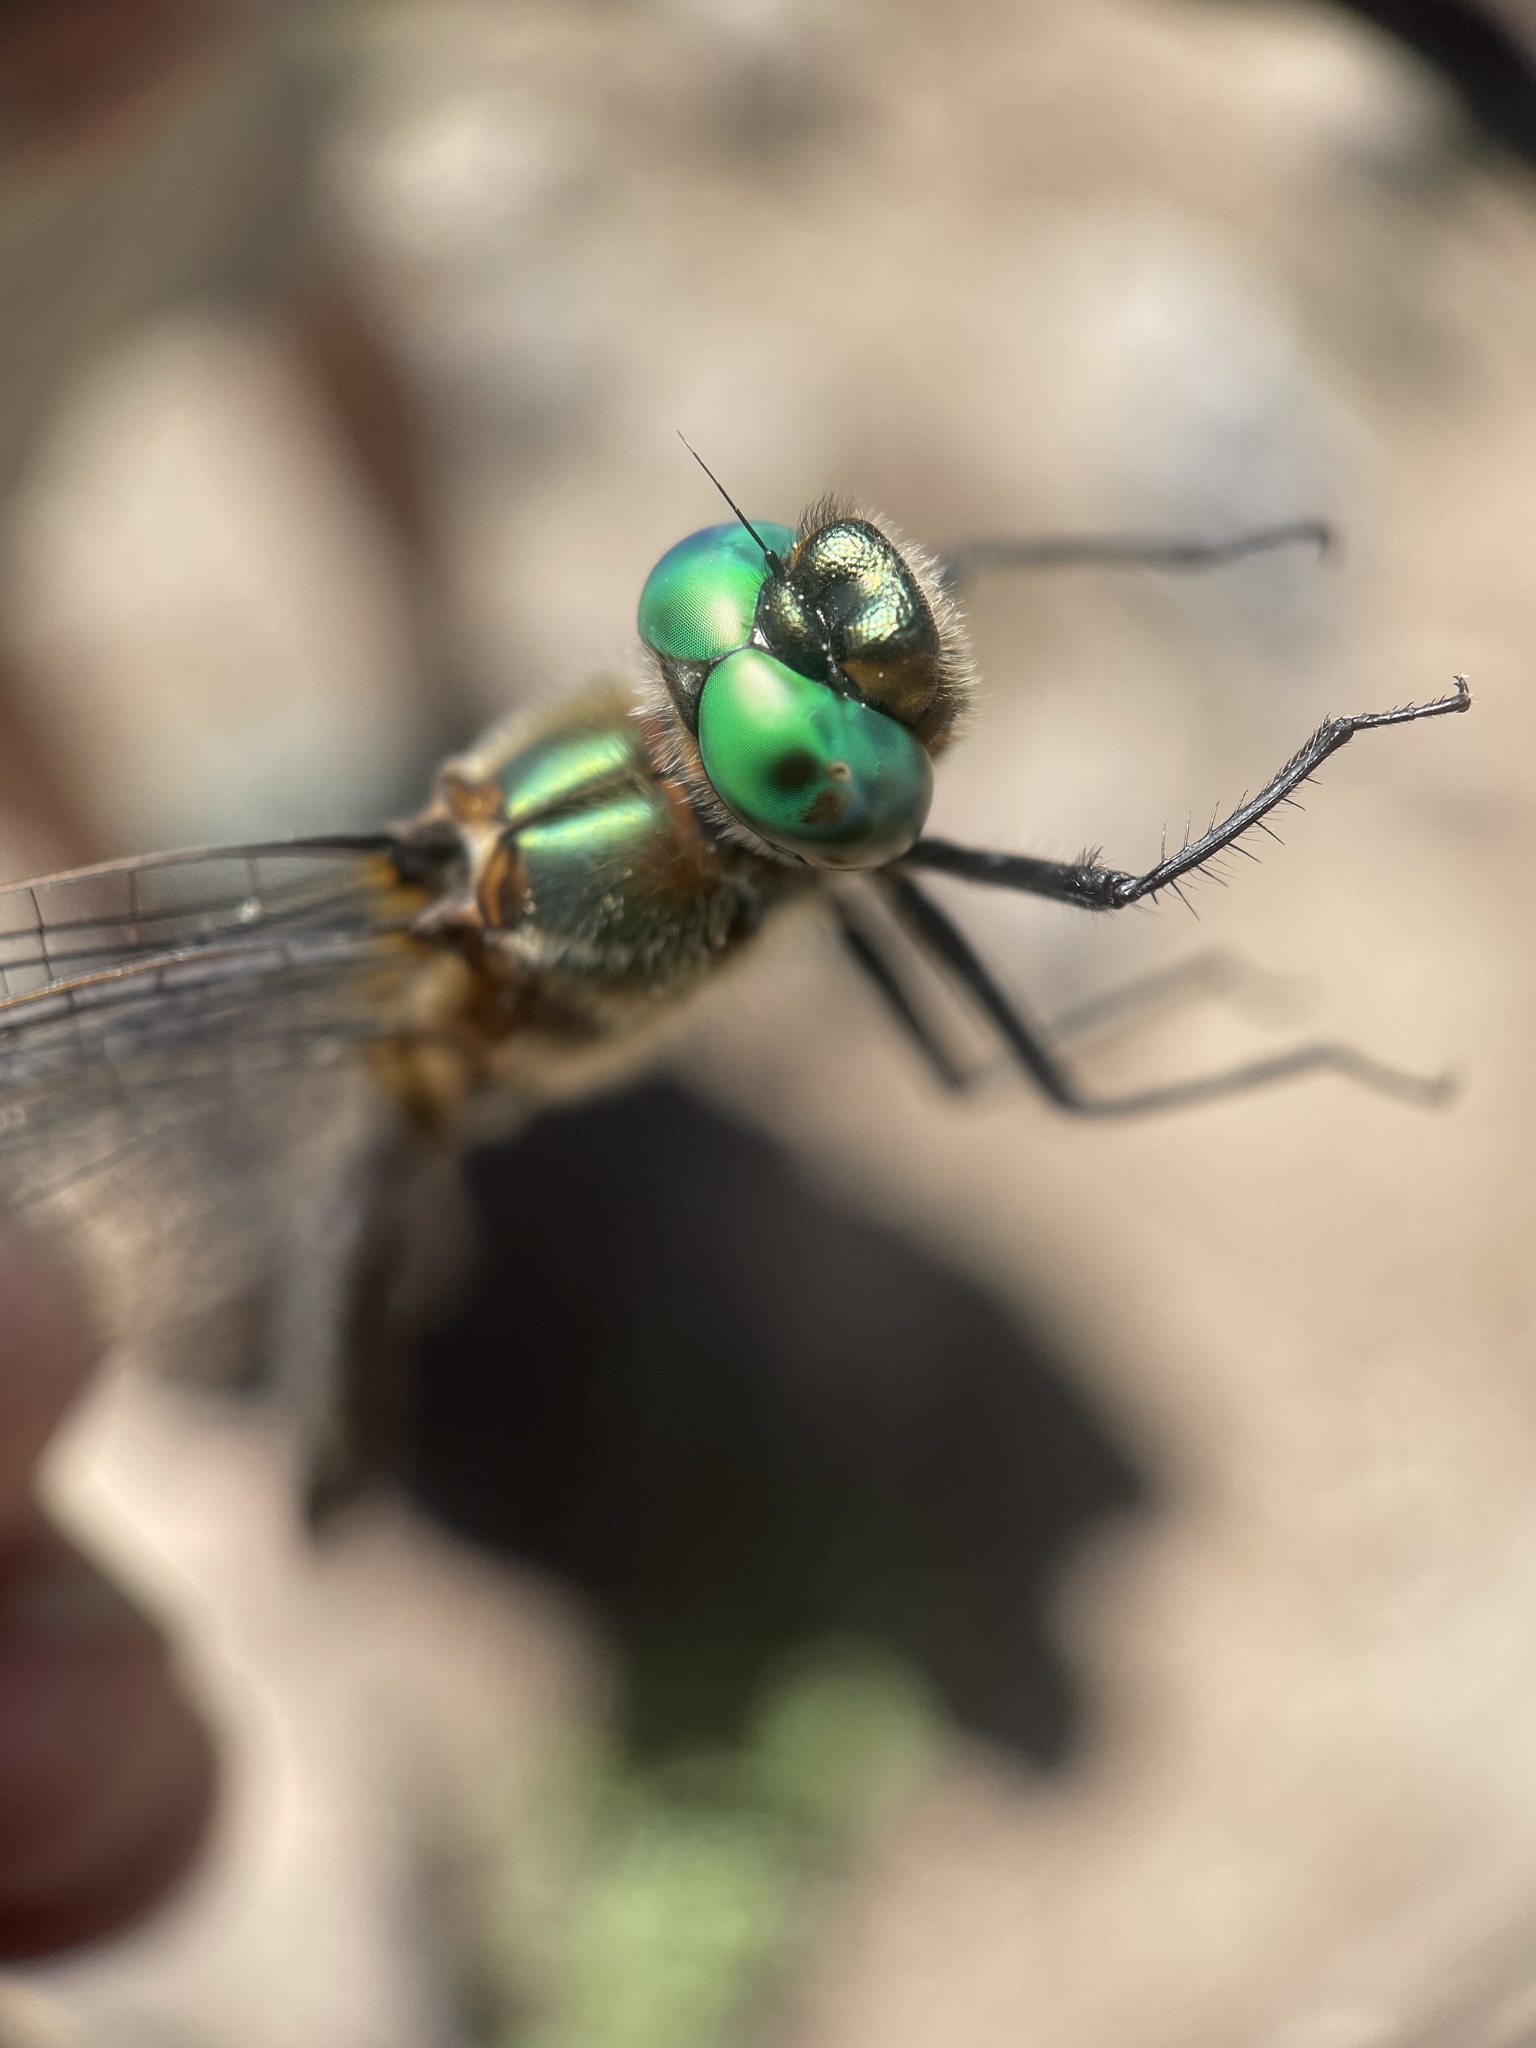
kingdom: Animalia
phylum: Arthropoda
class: Insecta
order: Odonata
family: Corduliidae
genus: Cordulia
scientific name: Cordulia shurtleffii
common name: American emerald
